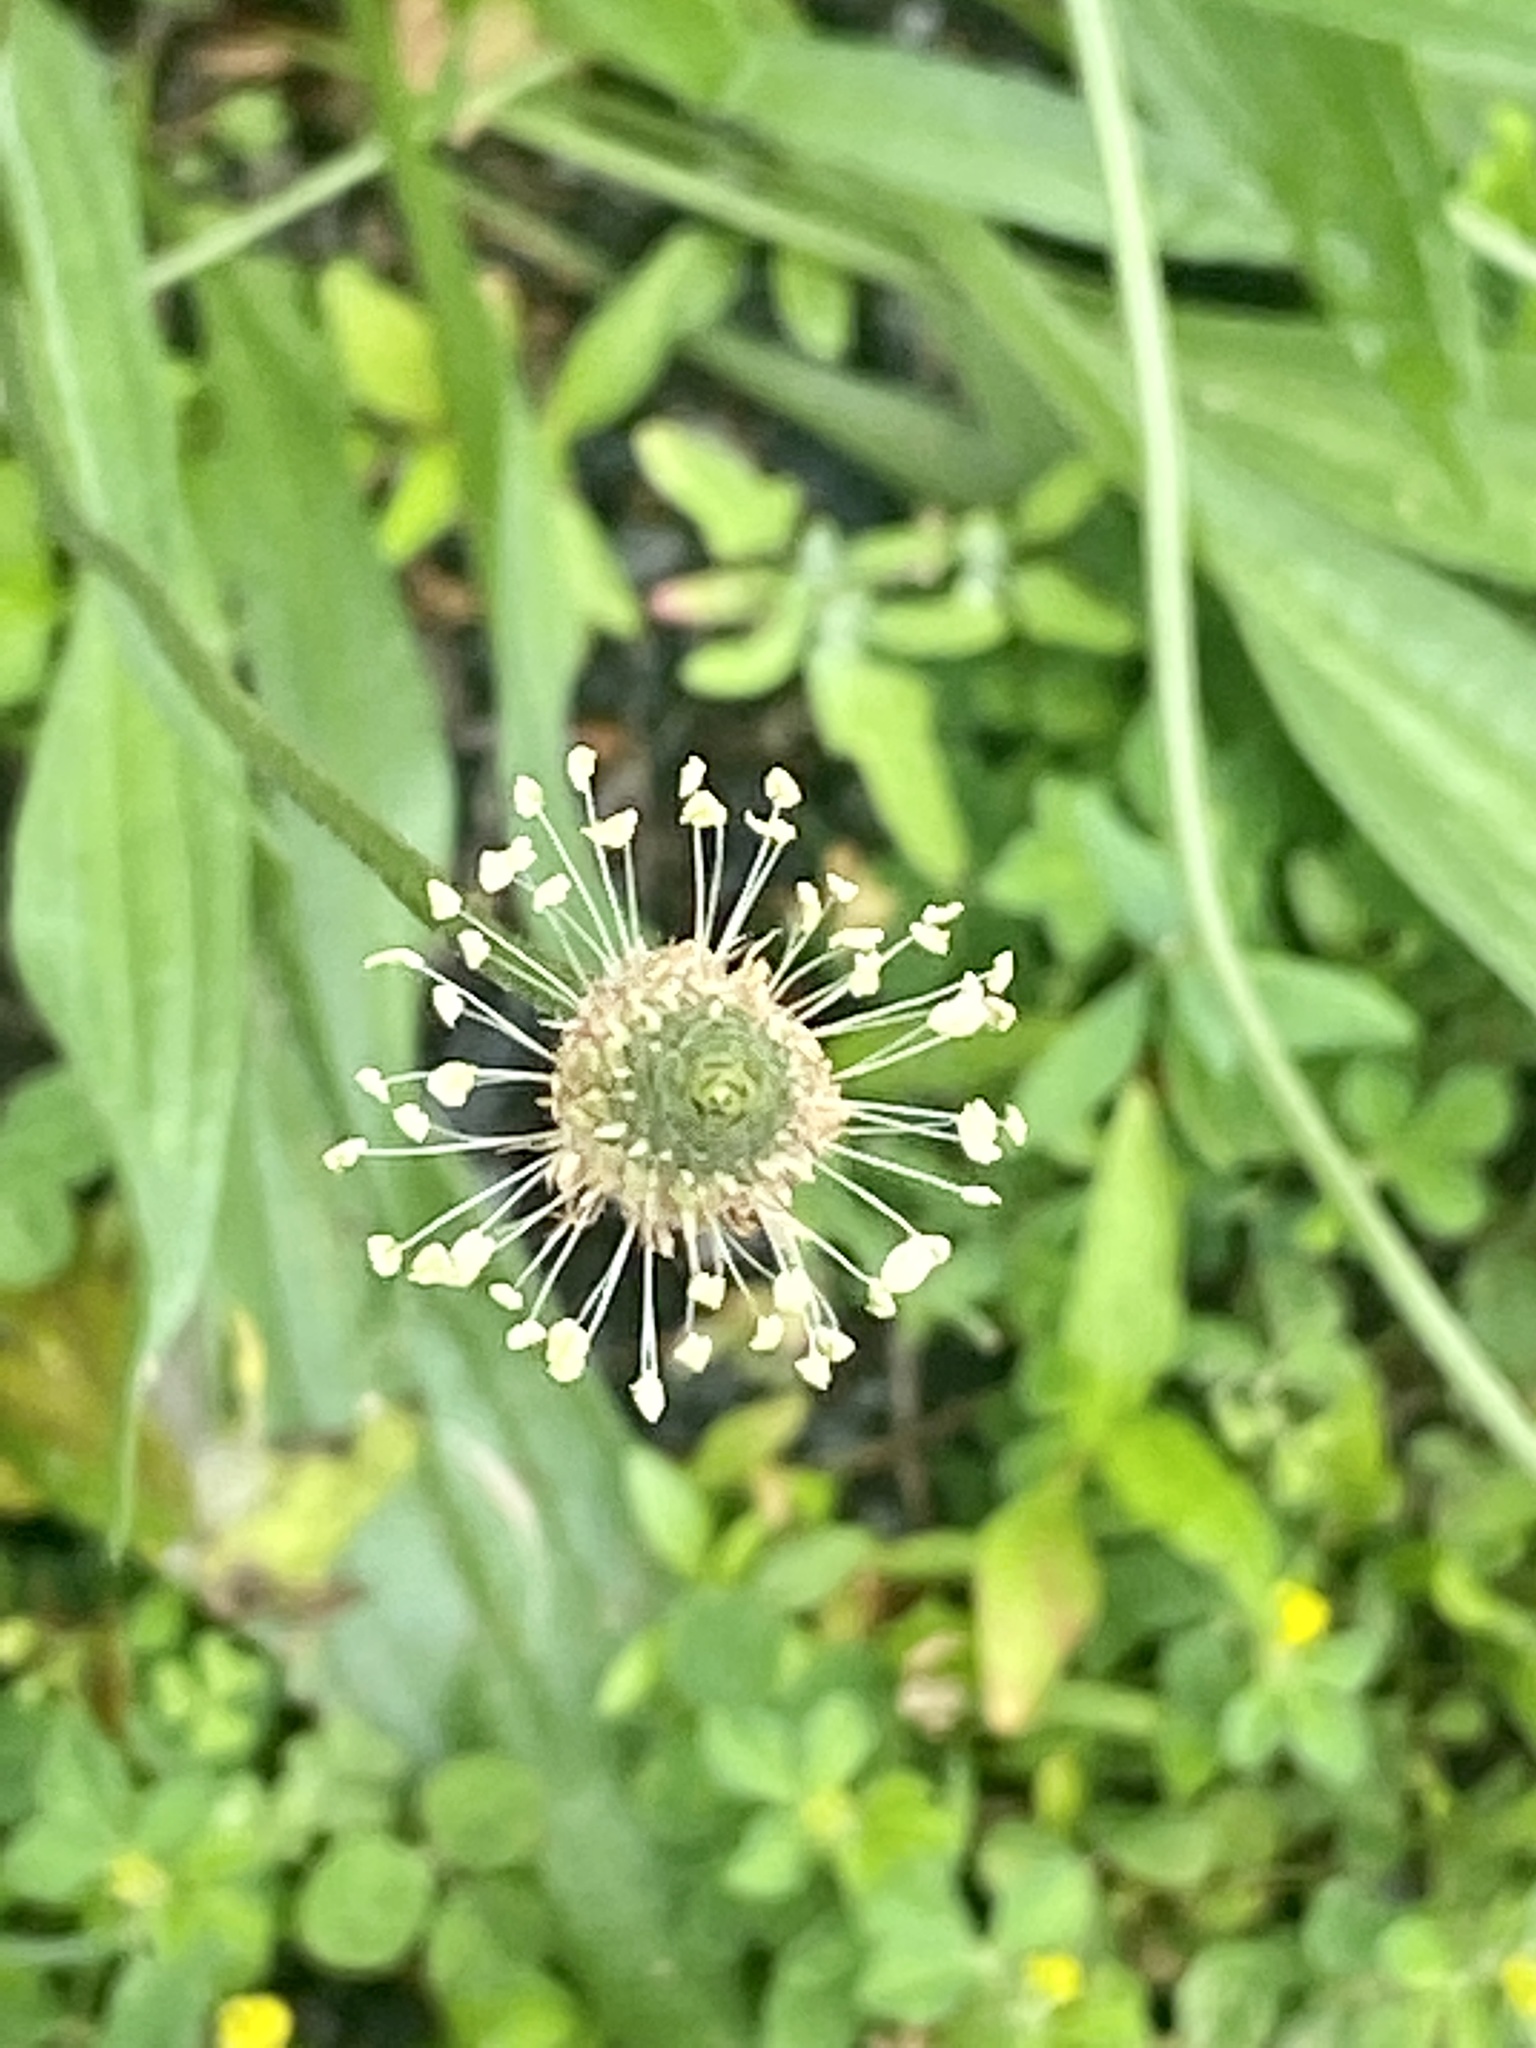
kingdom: Plantae
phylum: Tracheophyta
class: Magnoliopsida
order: Lamiales
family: Plantaginaceae
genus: Plantago
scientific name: Plantago lanceolata
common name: Ribwort plantain
